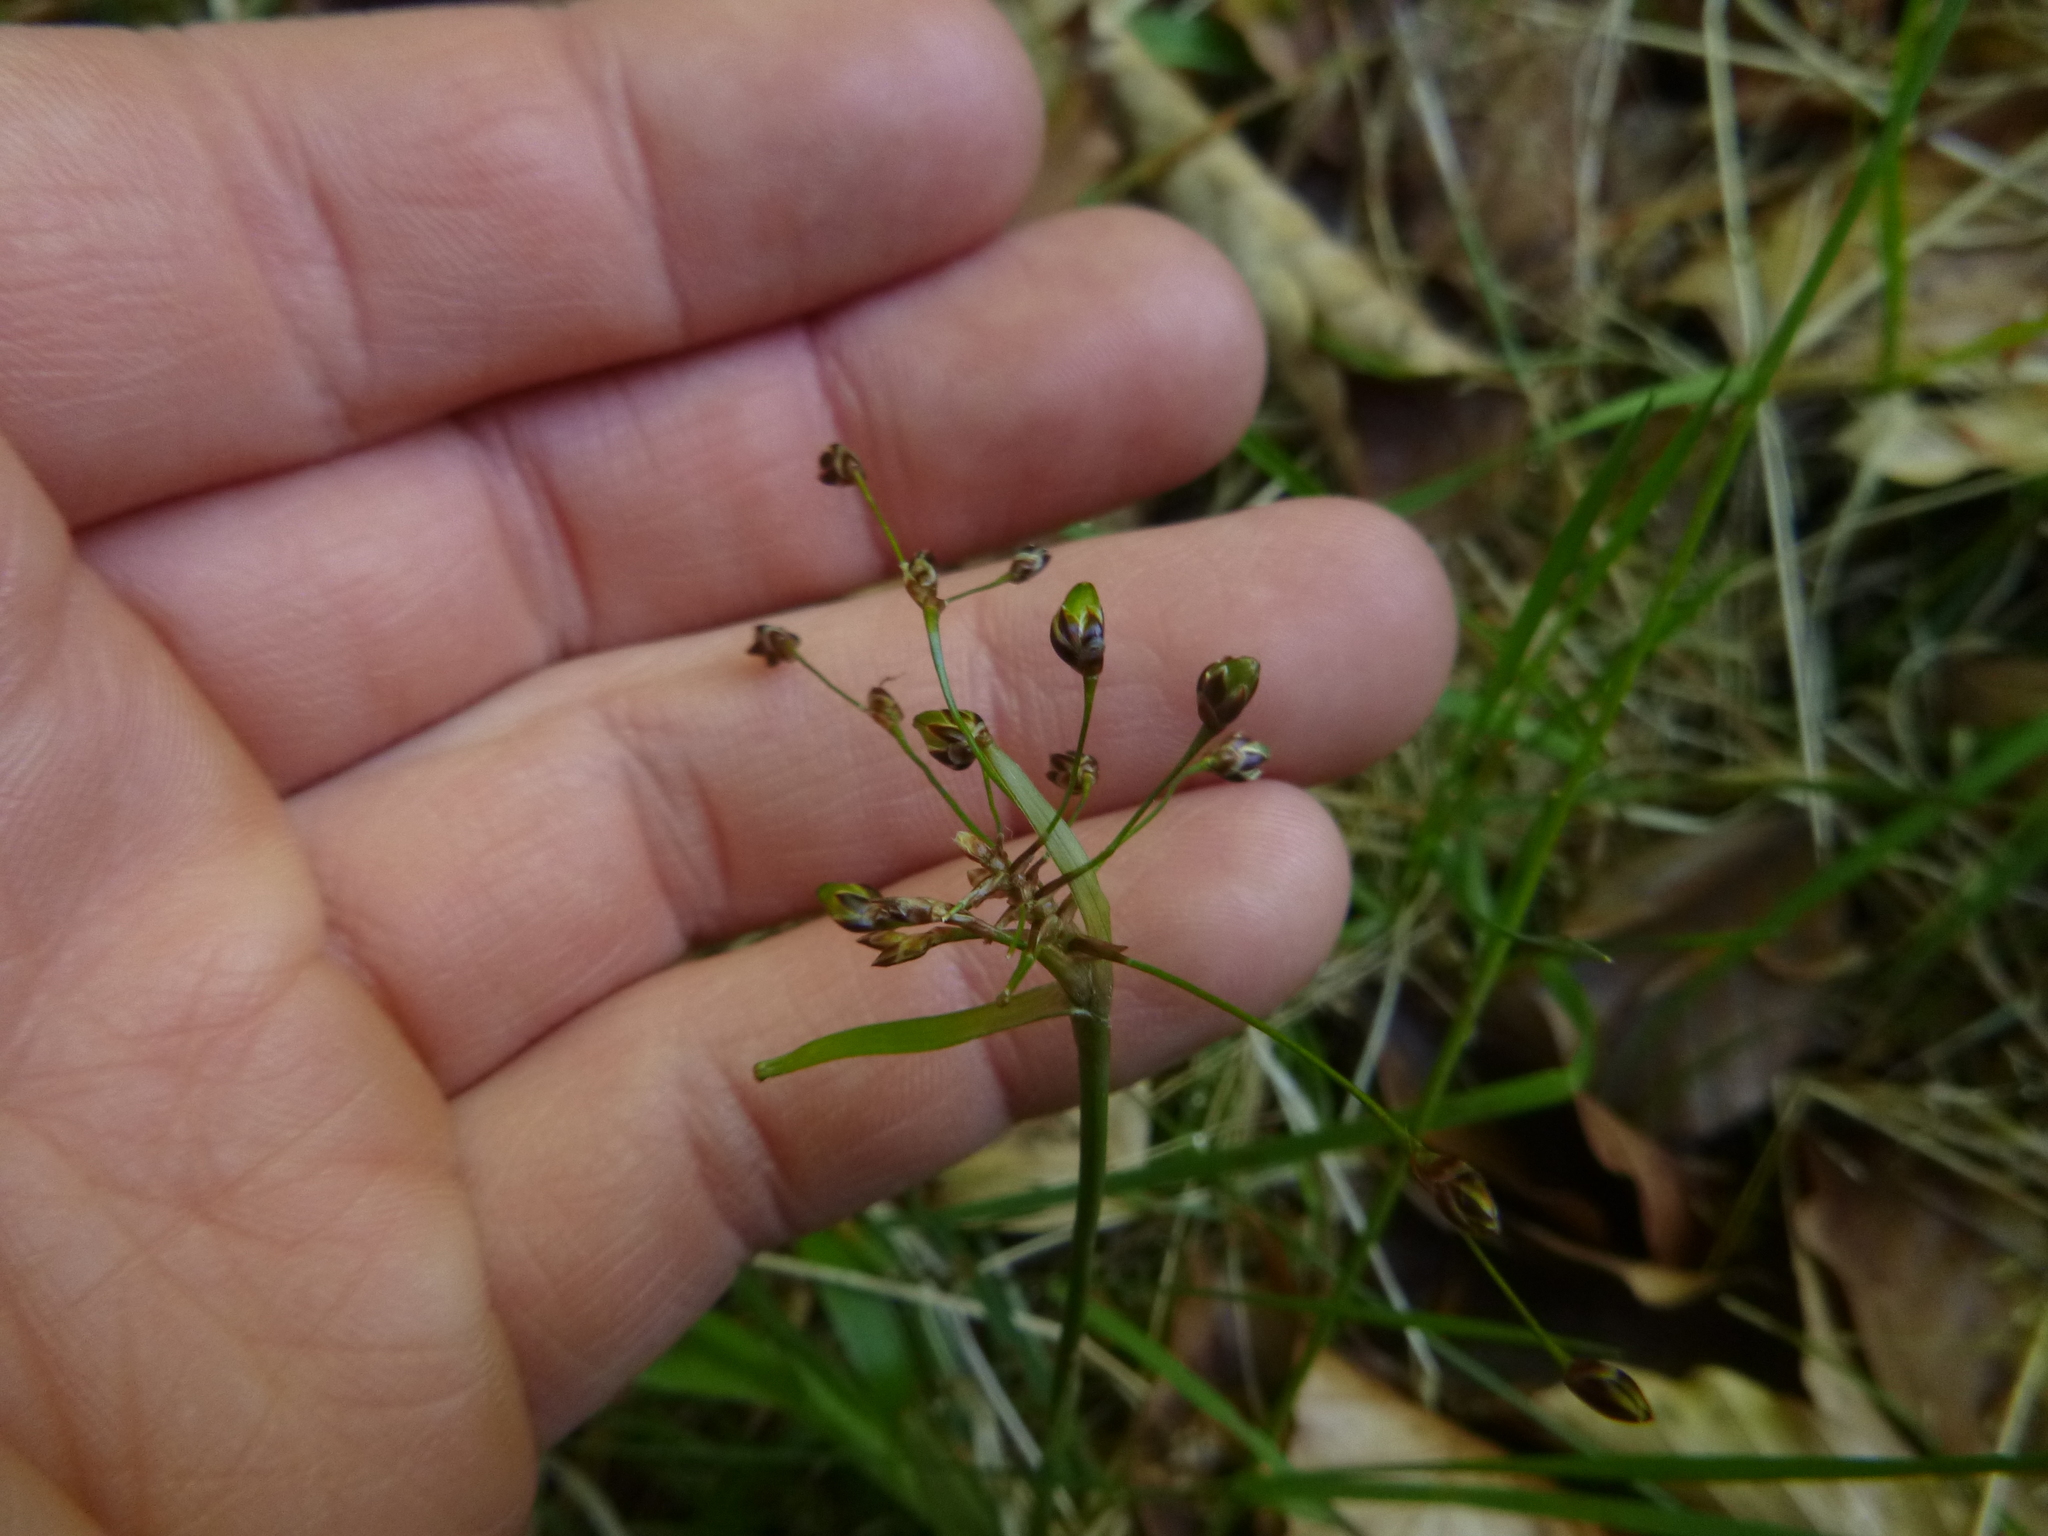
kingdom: Plantae
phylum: Tracheophyta
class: Liliopsida
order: Poales
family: Juncaceae
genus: Luzula
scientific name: Luzula pilosa
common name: Hairy wood-rush
